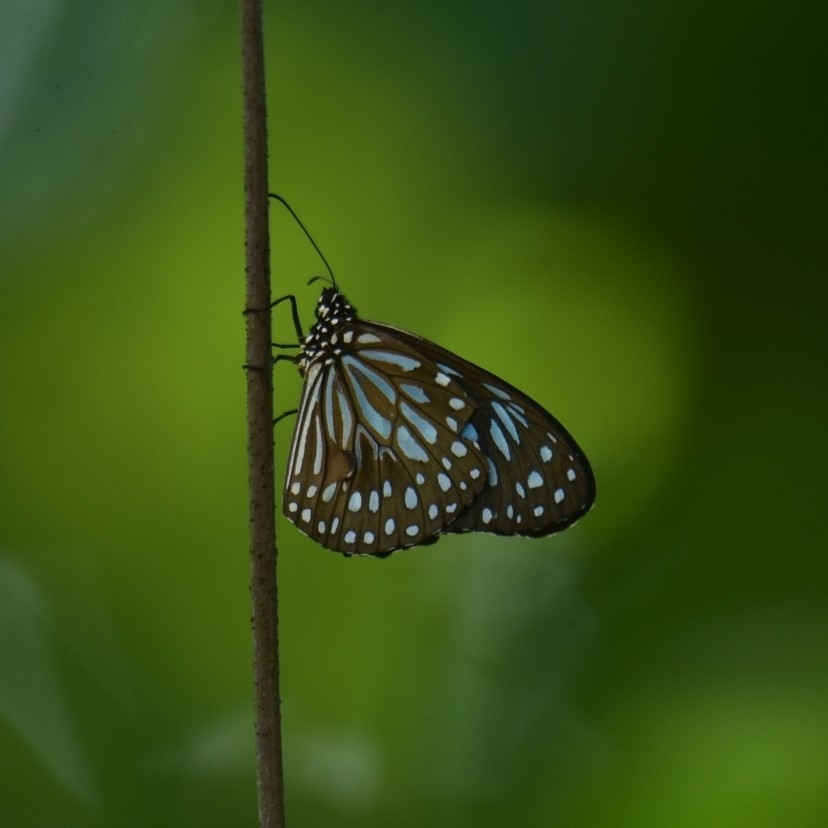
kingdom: Animalia
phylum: Arthropoda
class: Insecta
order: Lepidoptera
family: Nymphalidae
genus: Tirumala
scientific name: Tirumala septentrionis
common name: Dark blue tiger butterfly
